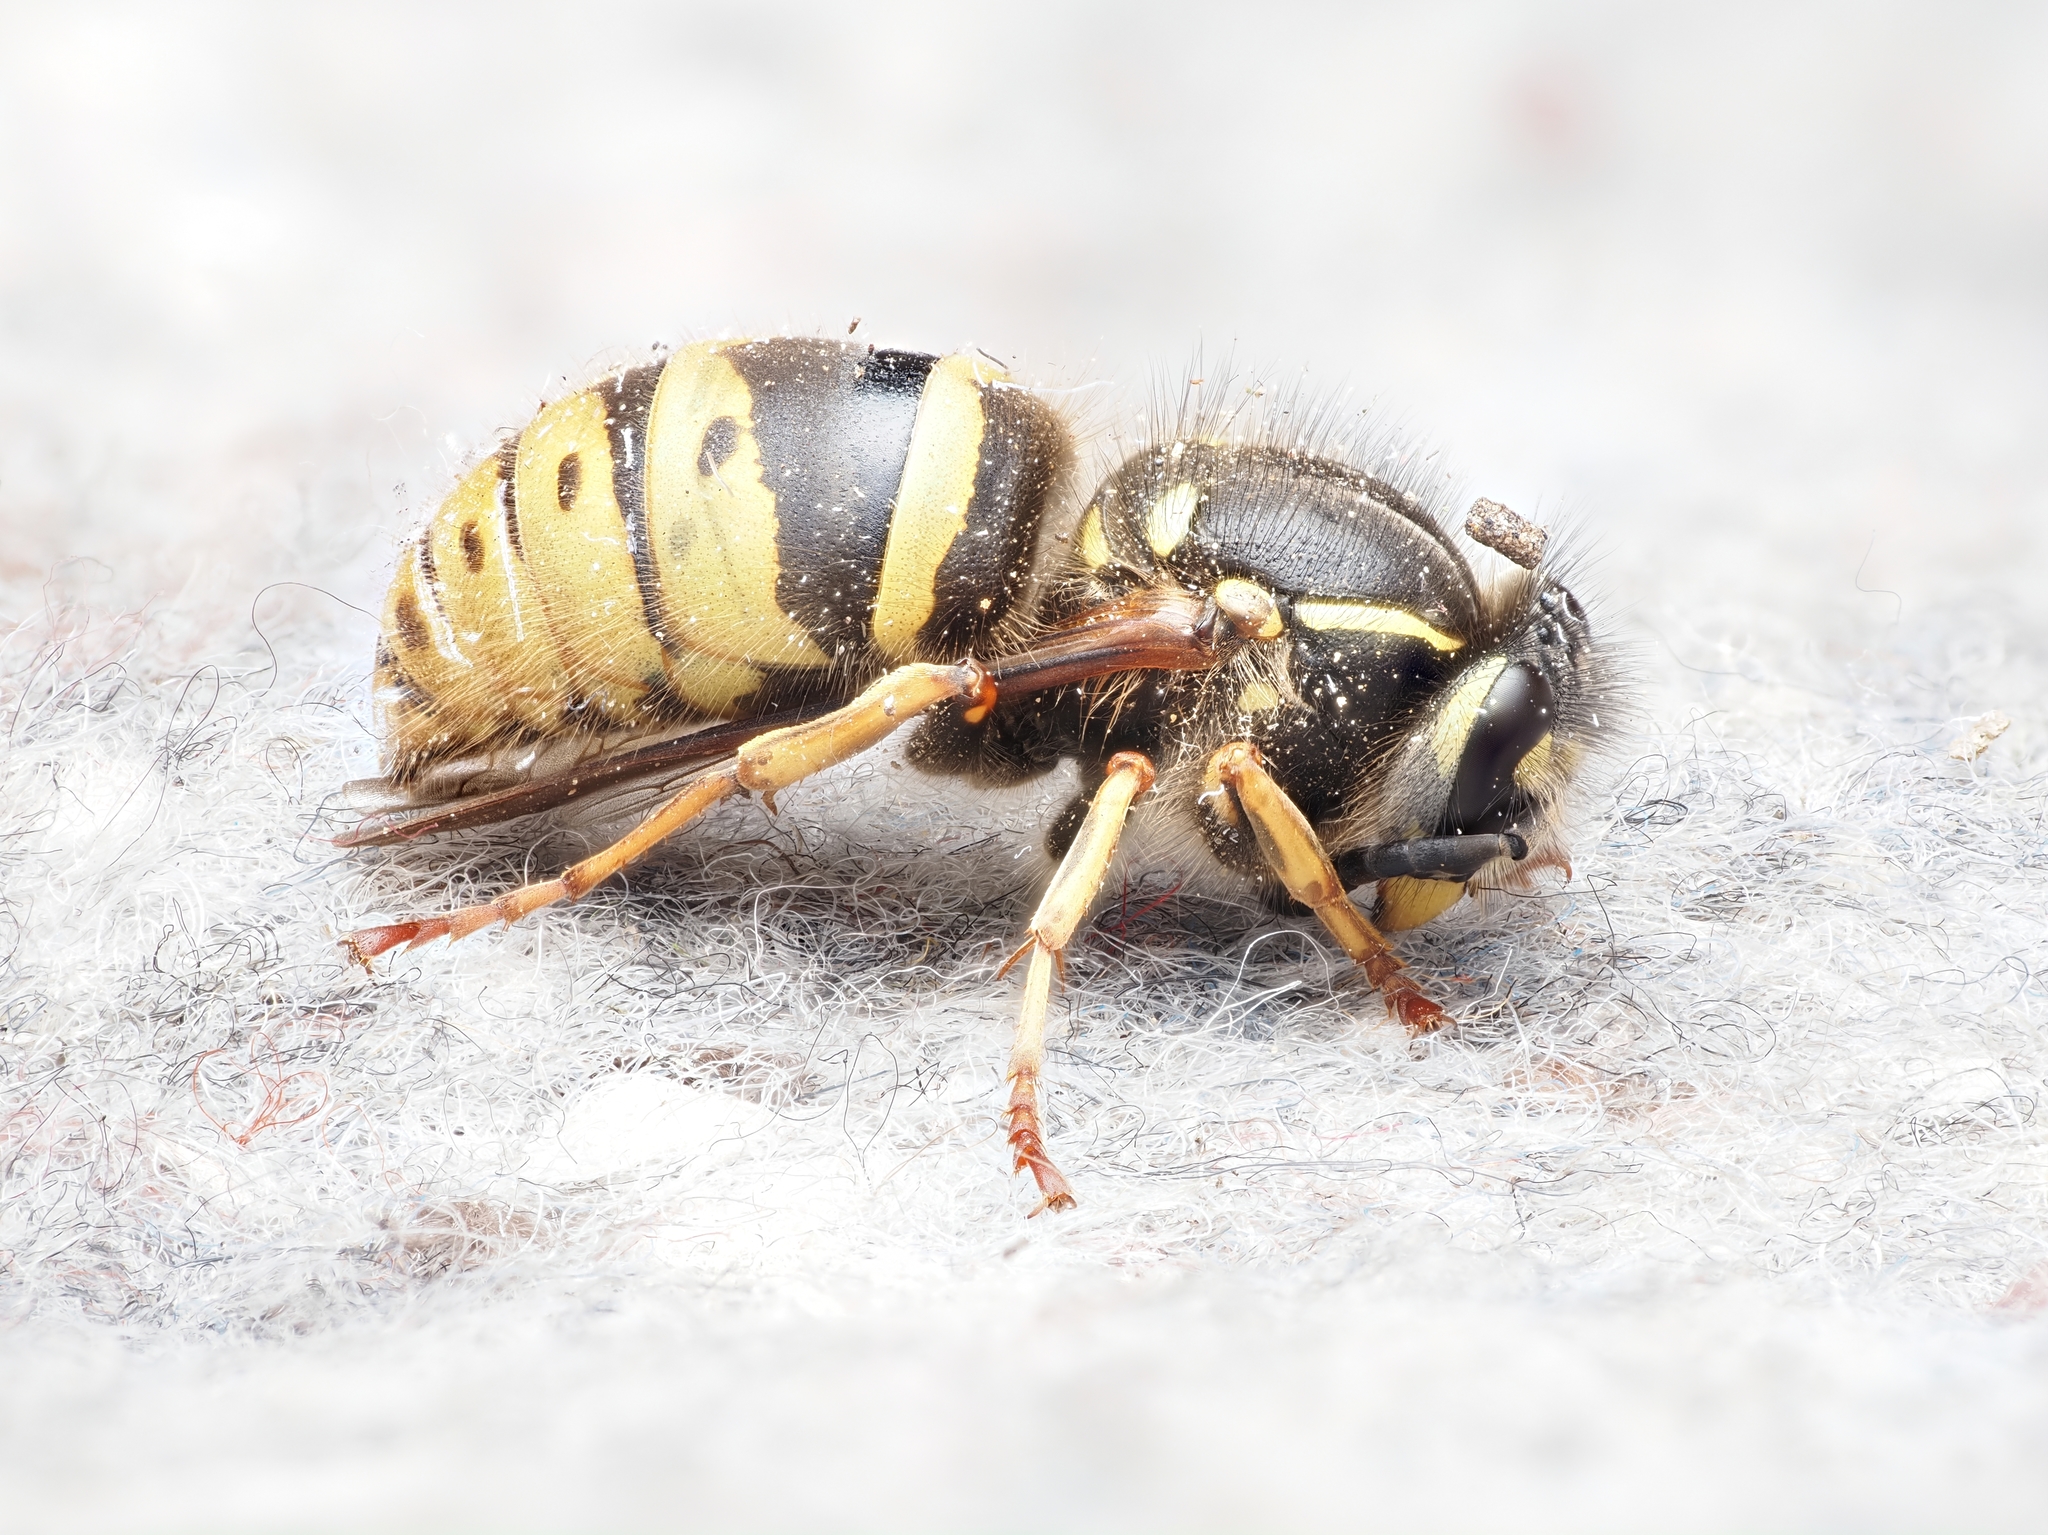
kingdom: Animalia
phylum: Arthropoda
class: Insecta
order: Hymenoptera
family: Vespidae
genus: Vespula
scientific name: Vespula vulgaris
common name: Common wasp
